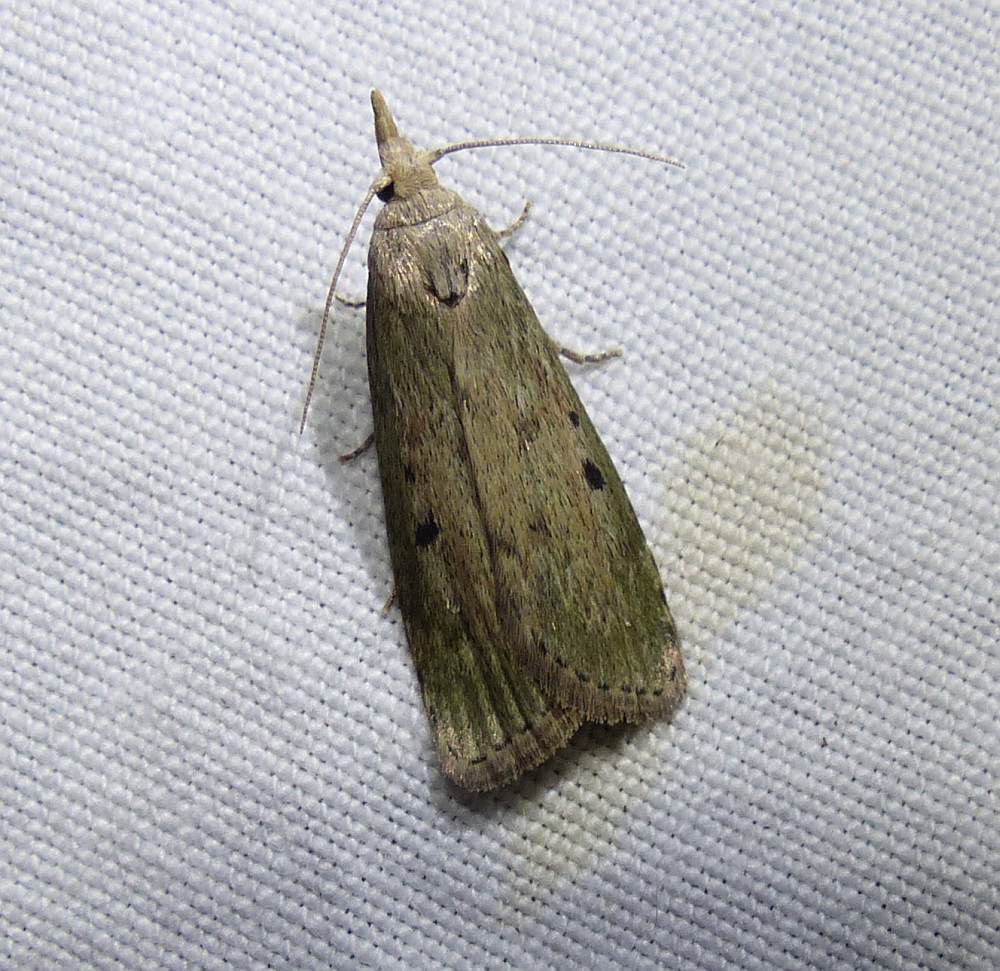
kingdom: Animalia
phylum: Arthropoda
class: Insecta
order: Lepidoptera
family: Pyralidae
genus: Aphomia
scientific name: Aphomia sociella
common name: Bee moth
